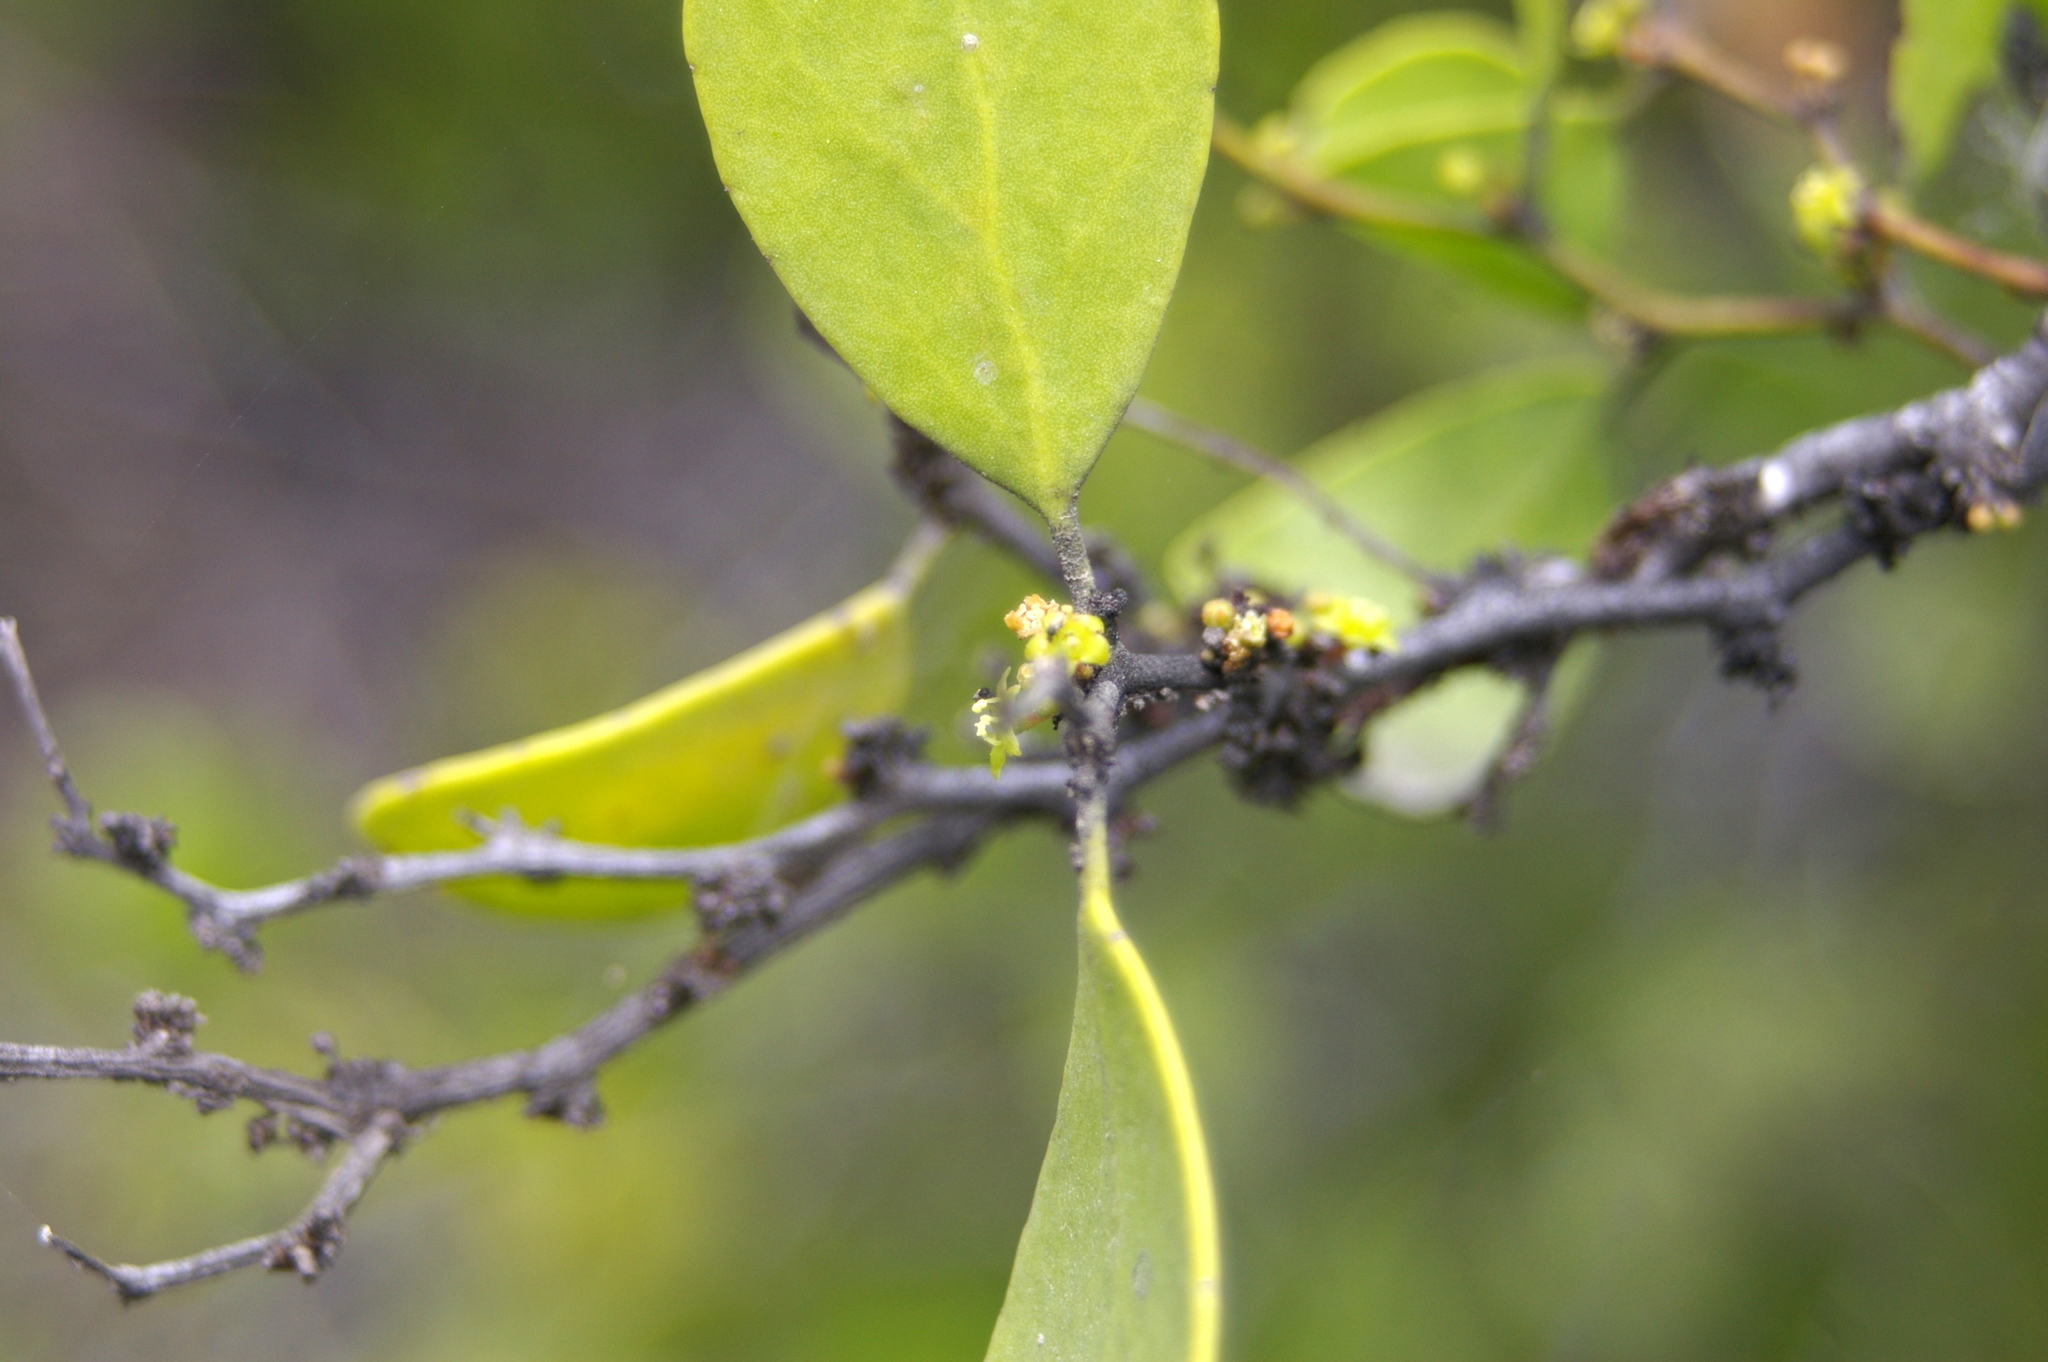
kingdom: Plantae
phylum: Tracheophyta
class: Magnoliopsida
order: Celastrales
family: Celastraceae
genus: Tricerma
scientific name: Tricerma octogonum
